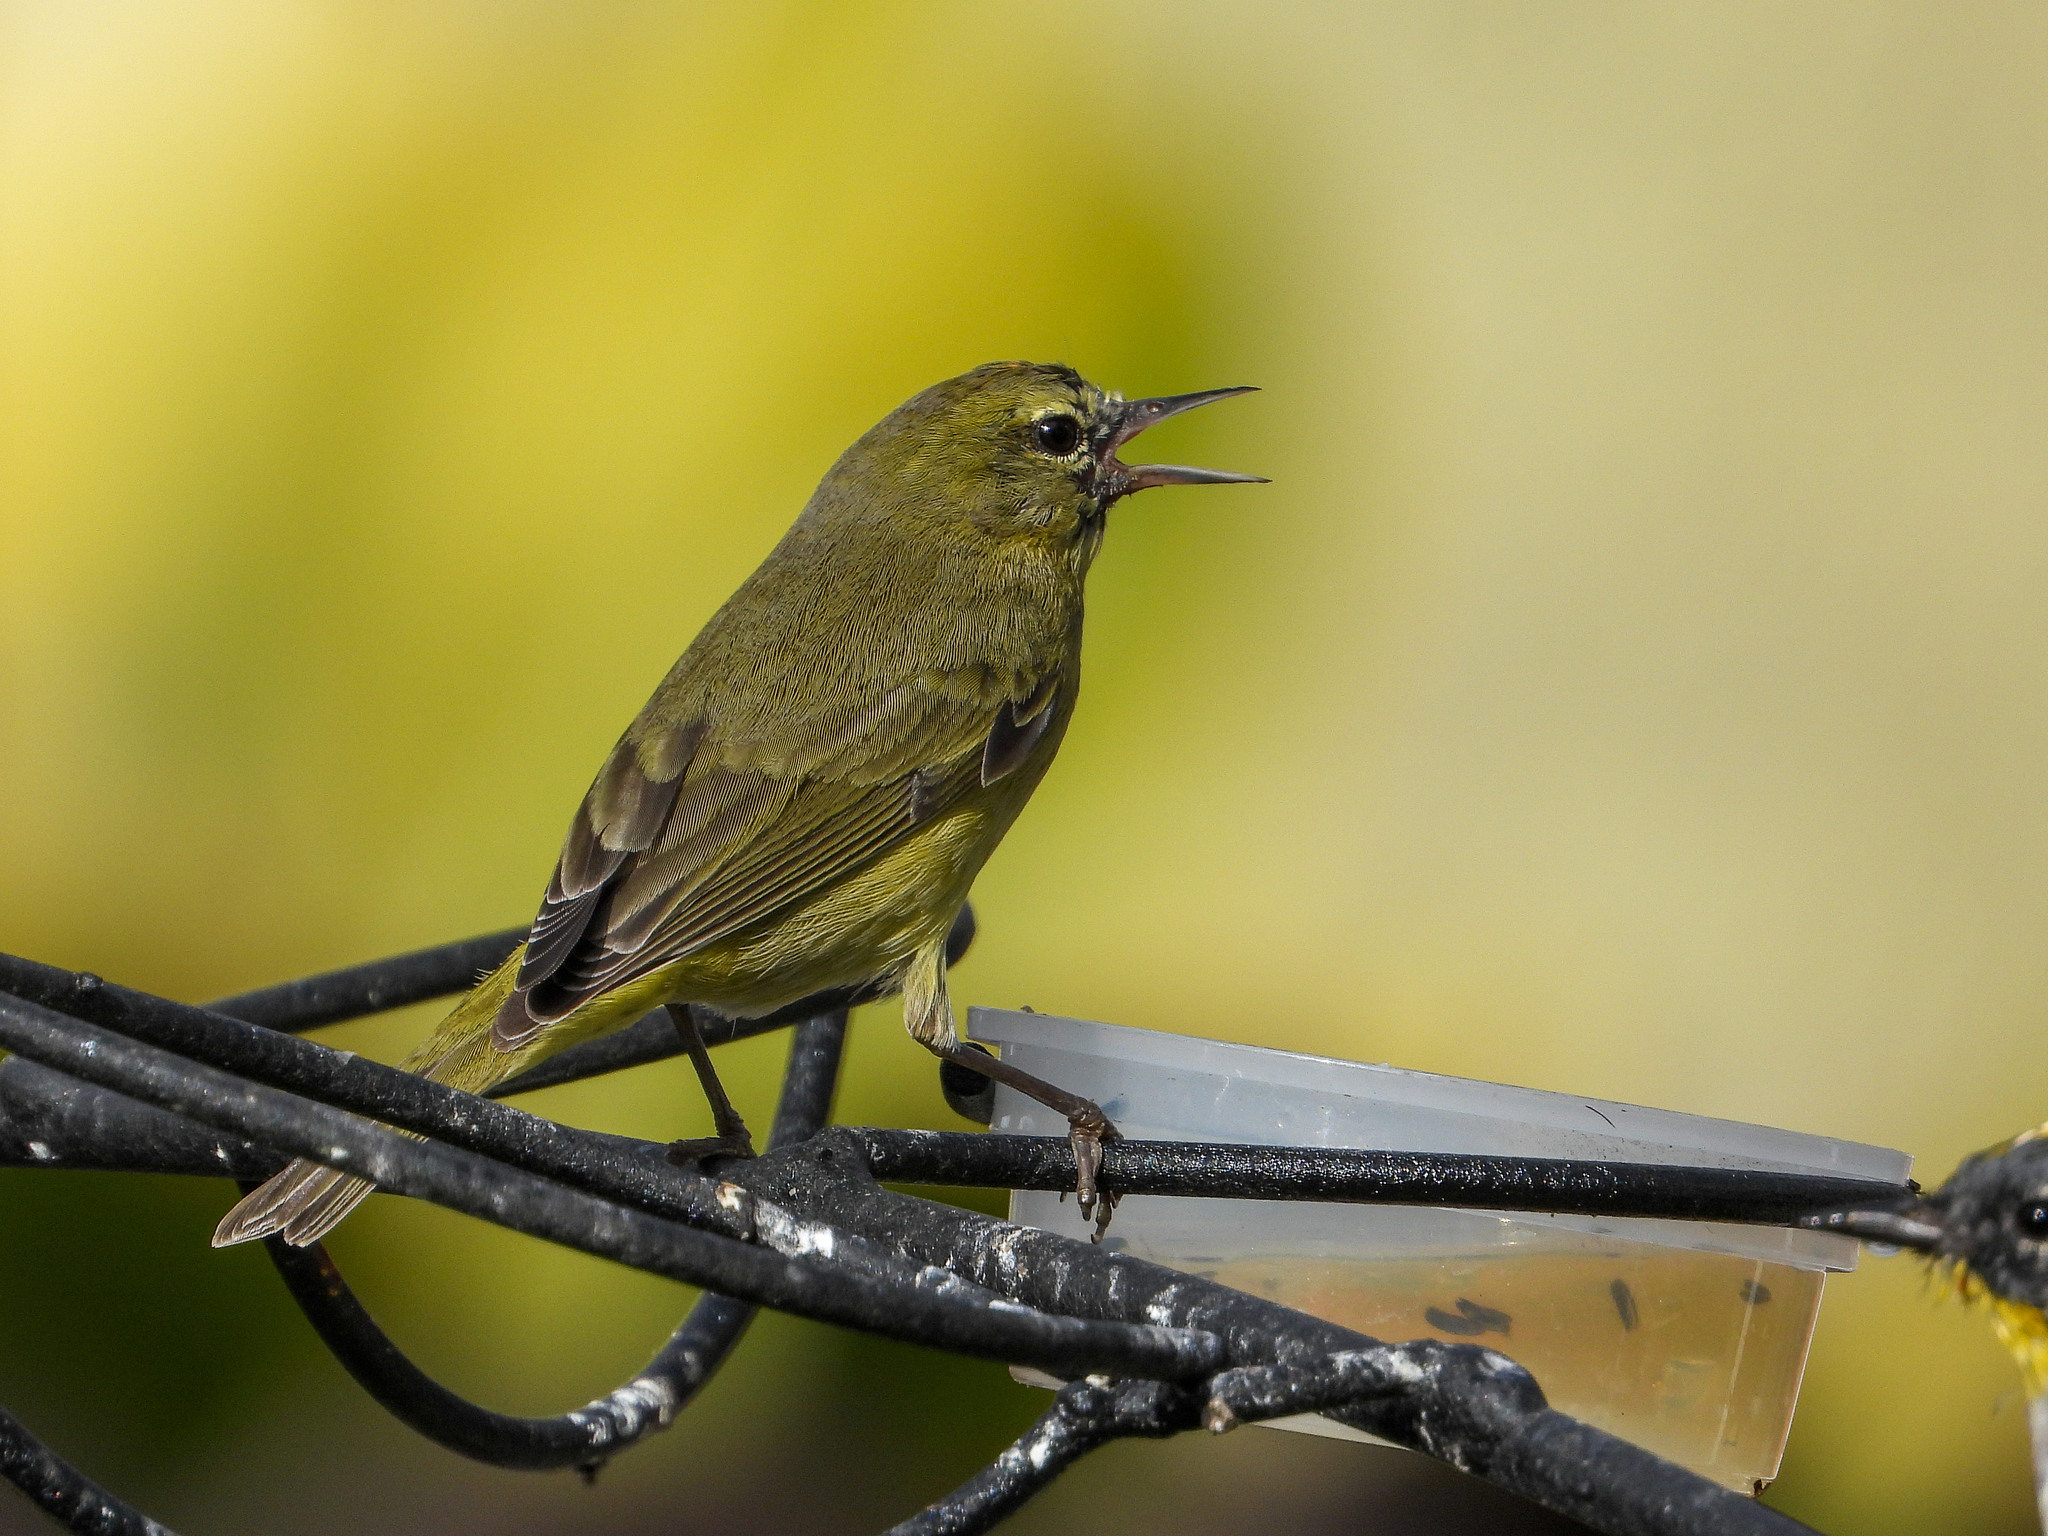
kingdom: Animalia
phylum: Chordata
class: Aves
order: Passeriformes
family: Parulidae
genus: Leiothlypis
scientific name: Leiothlypis celata
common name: Orange-crowned warbler
